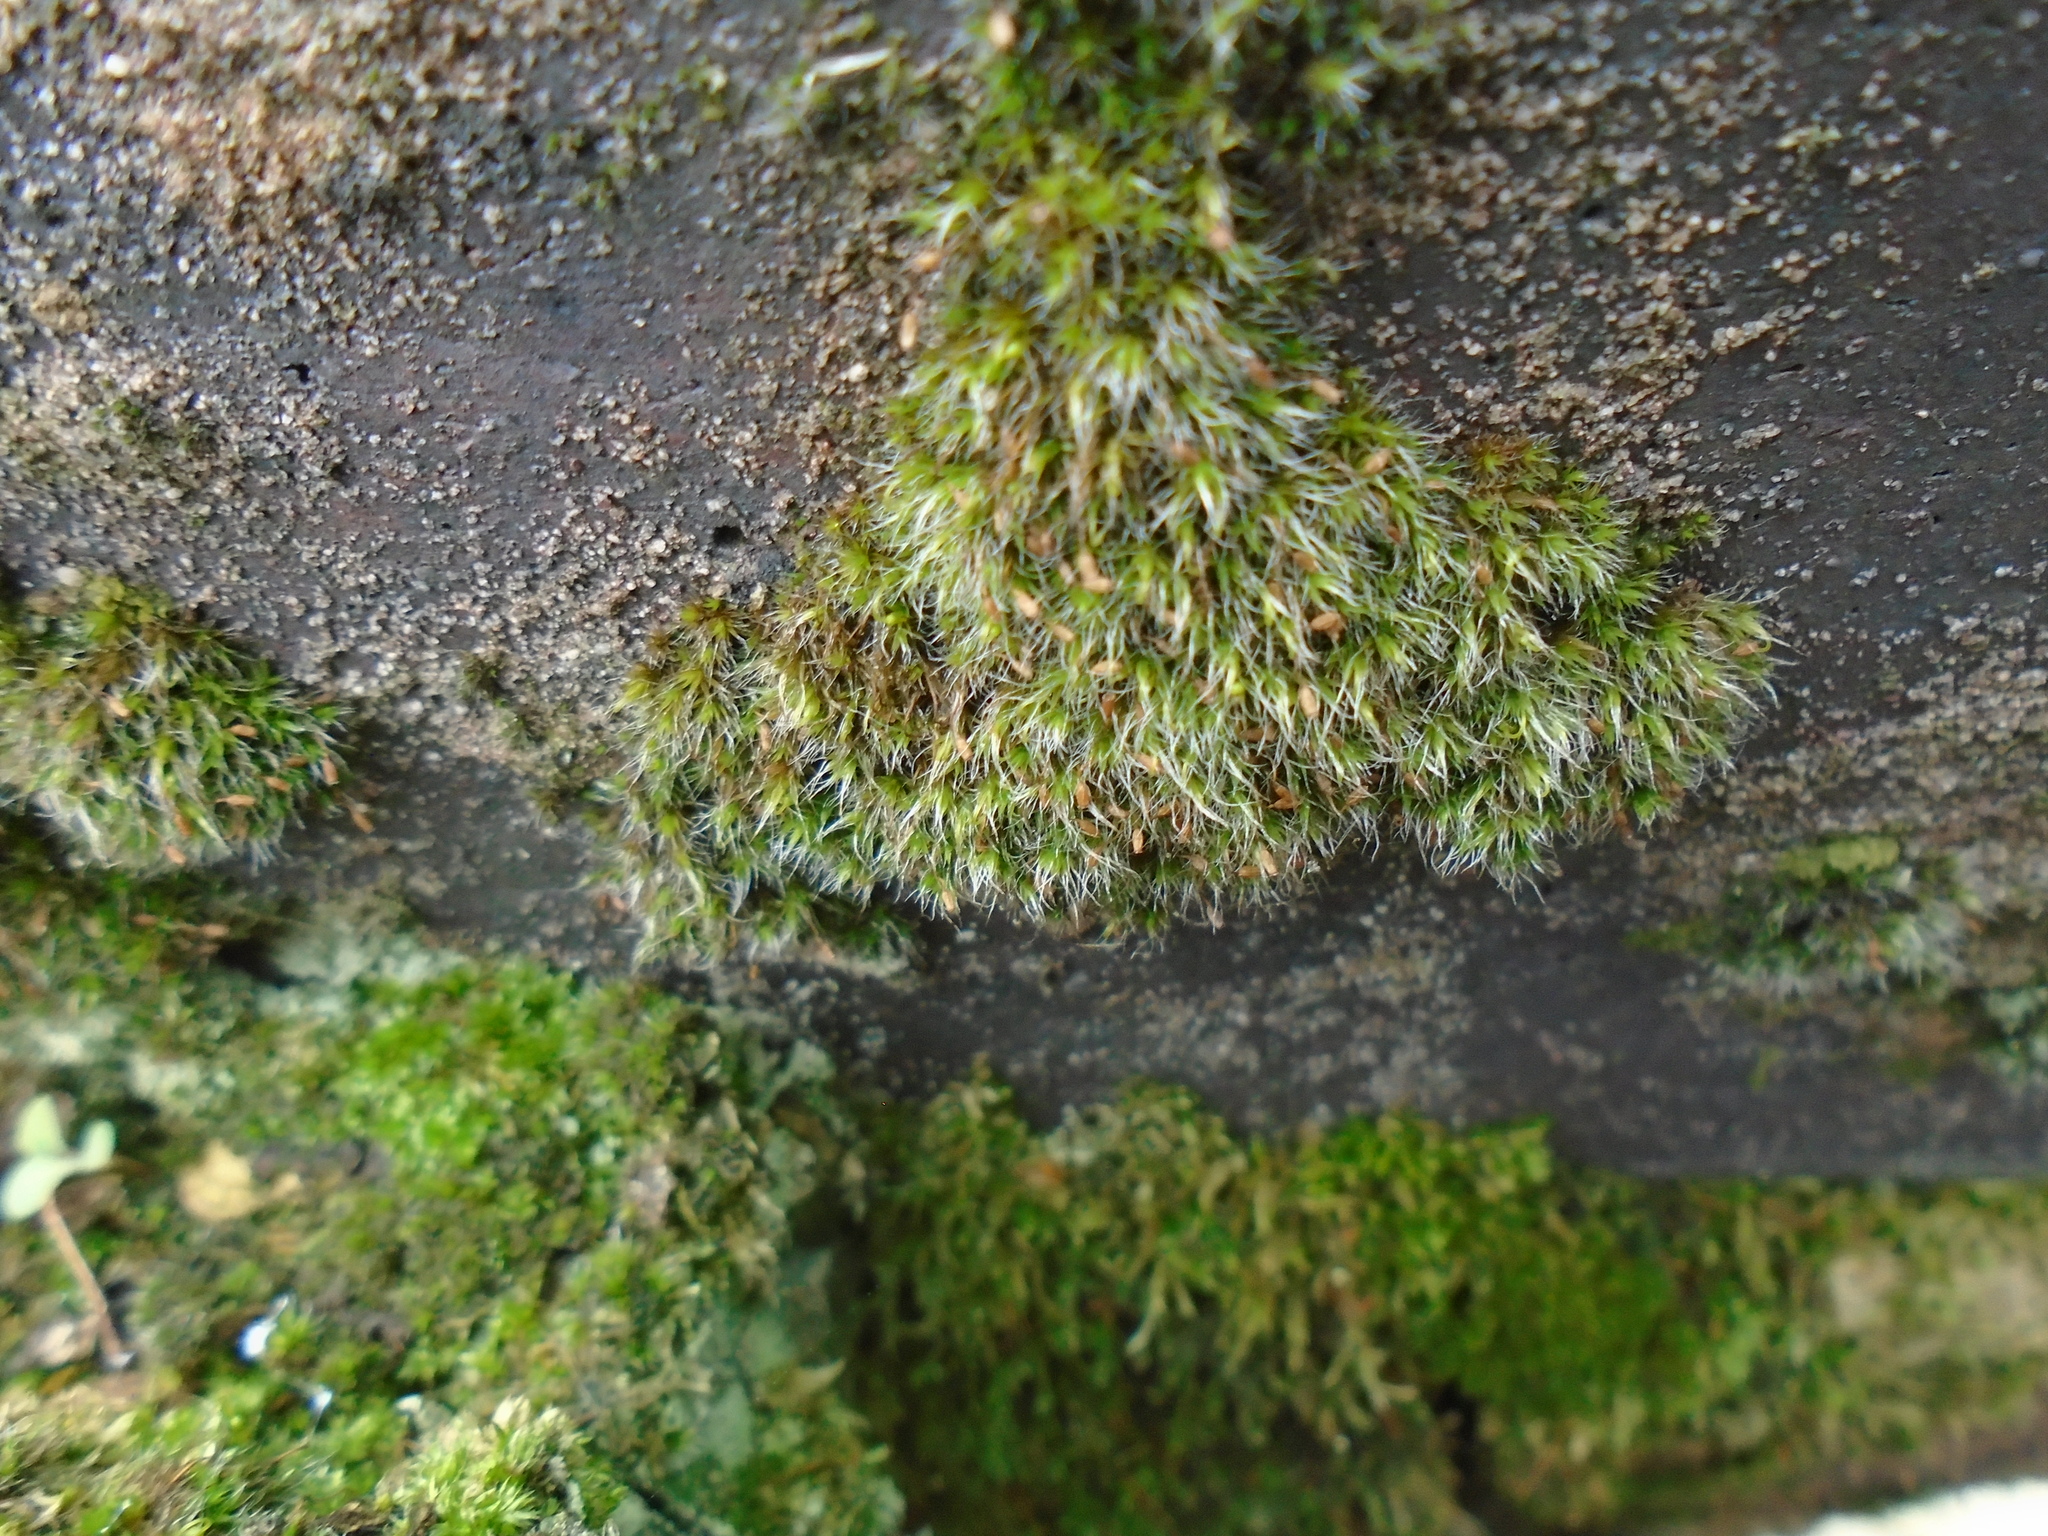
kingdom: Plantae
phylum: Bryophyta
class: Bryopsida
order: Grimmiales
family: Grimmiaceae
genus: Grimmia
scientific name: Grimmia pulvinata
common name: Grey-cushioned grimmia
